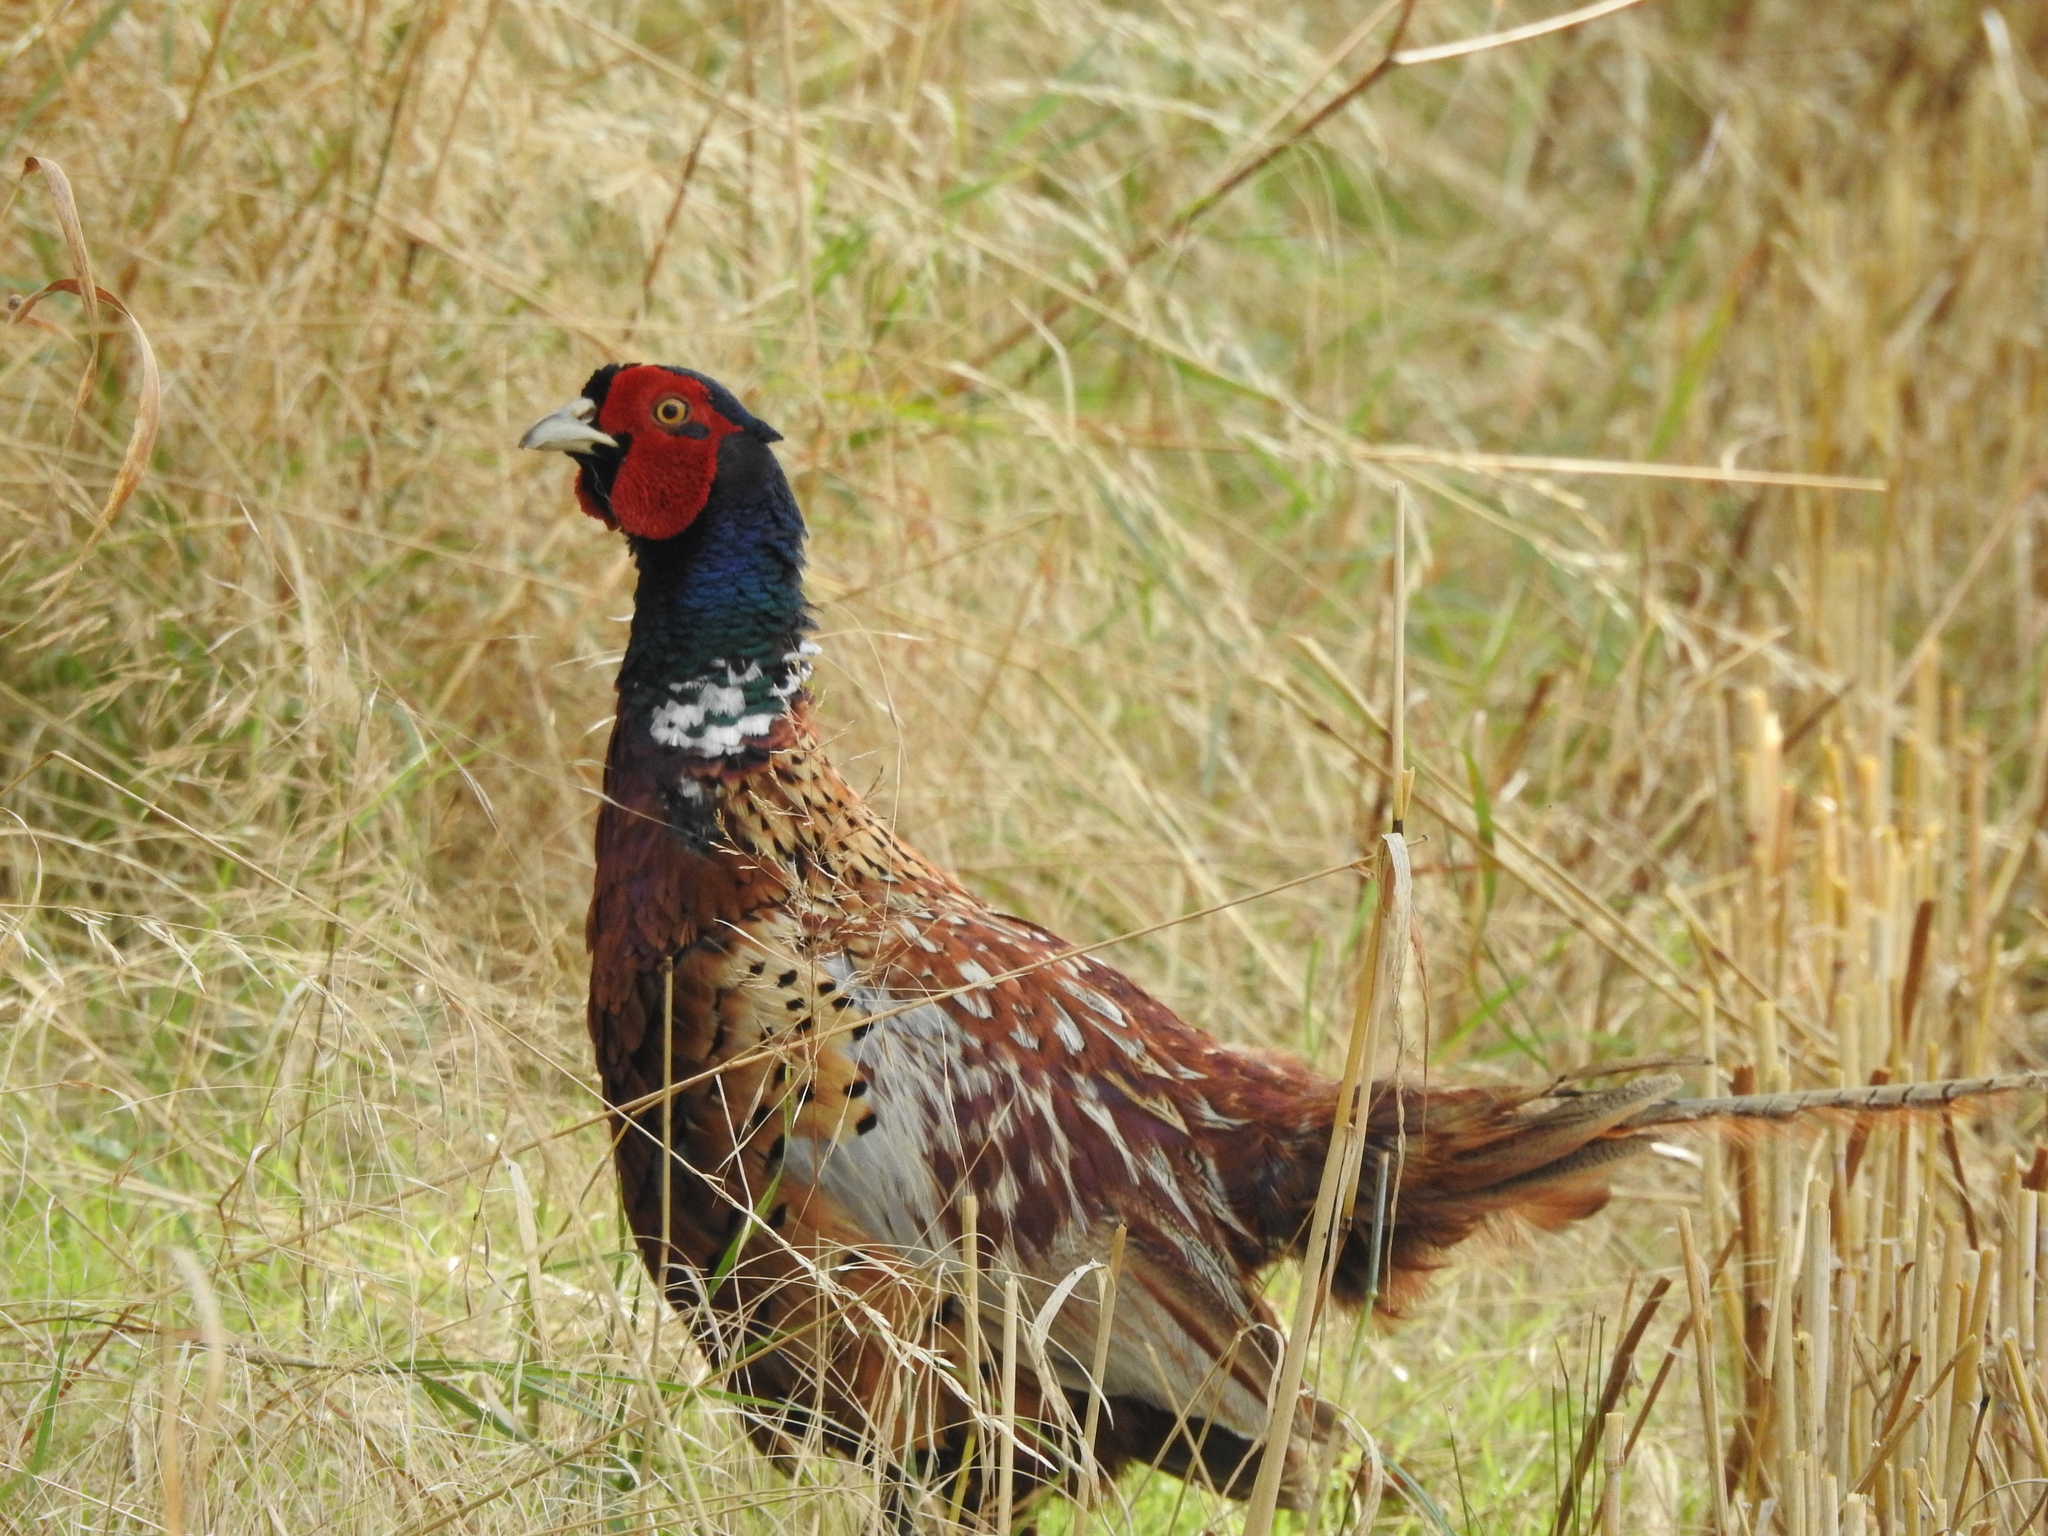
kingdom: Animalia
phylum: Chordata
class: Aves
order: Galliformes
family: Phasianidae
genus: Phasianus
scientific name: Phasianus colchicus
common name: Common pheasant
